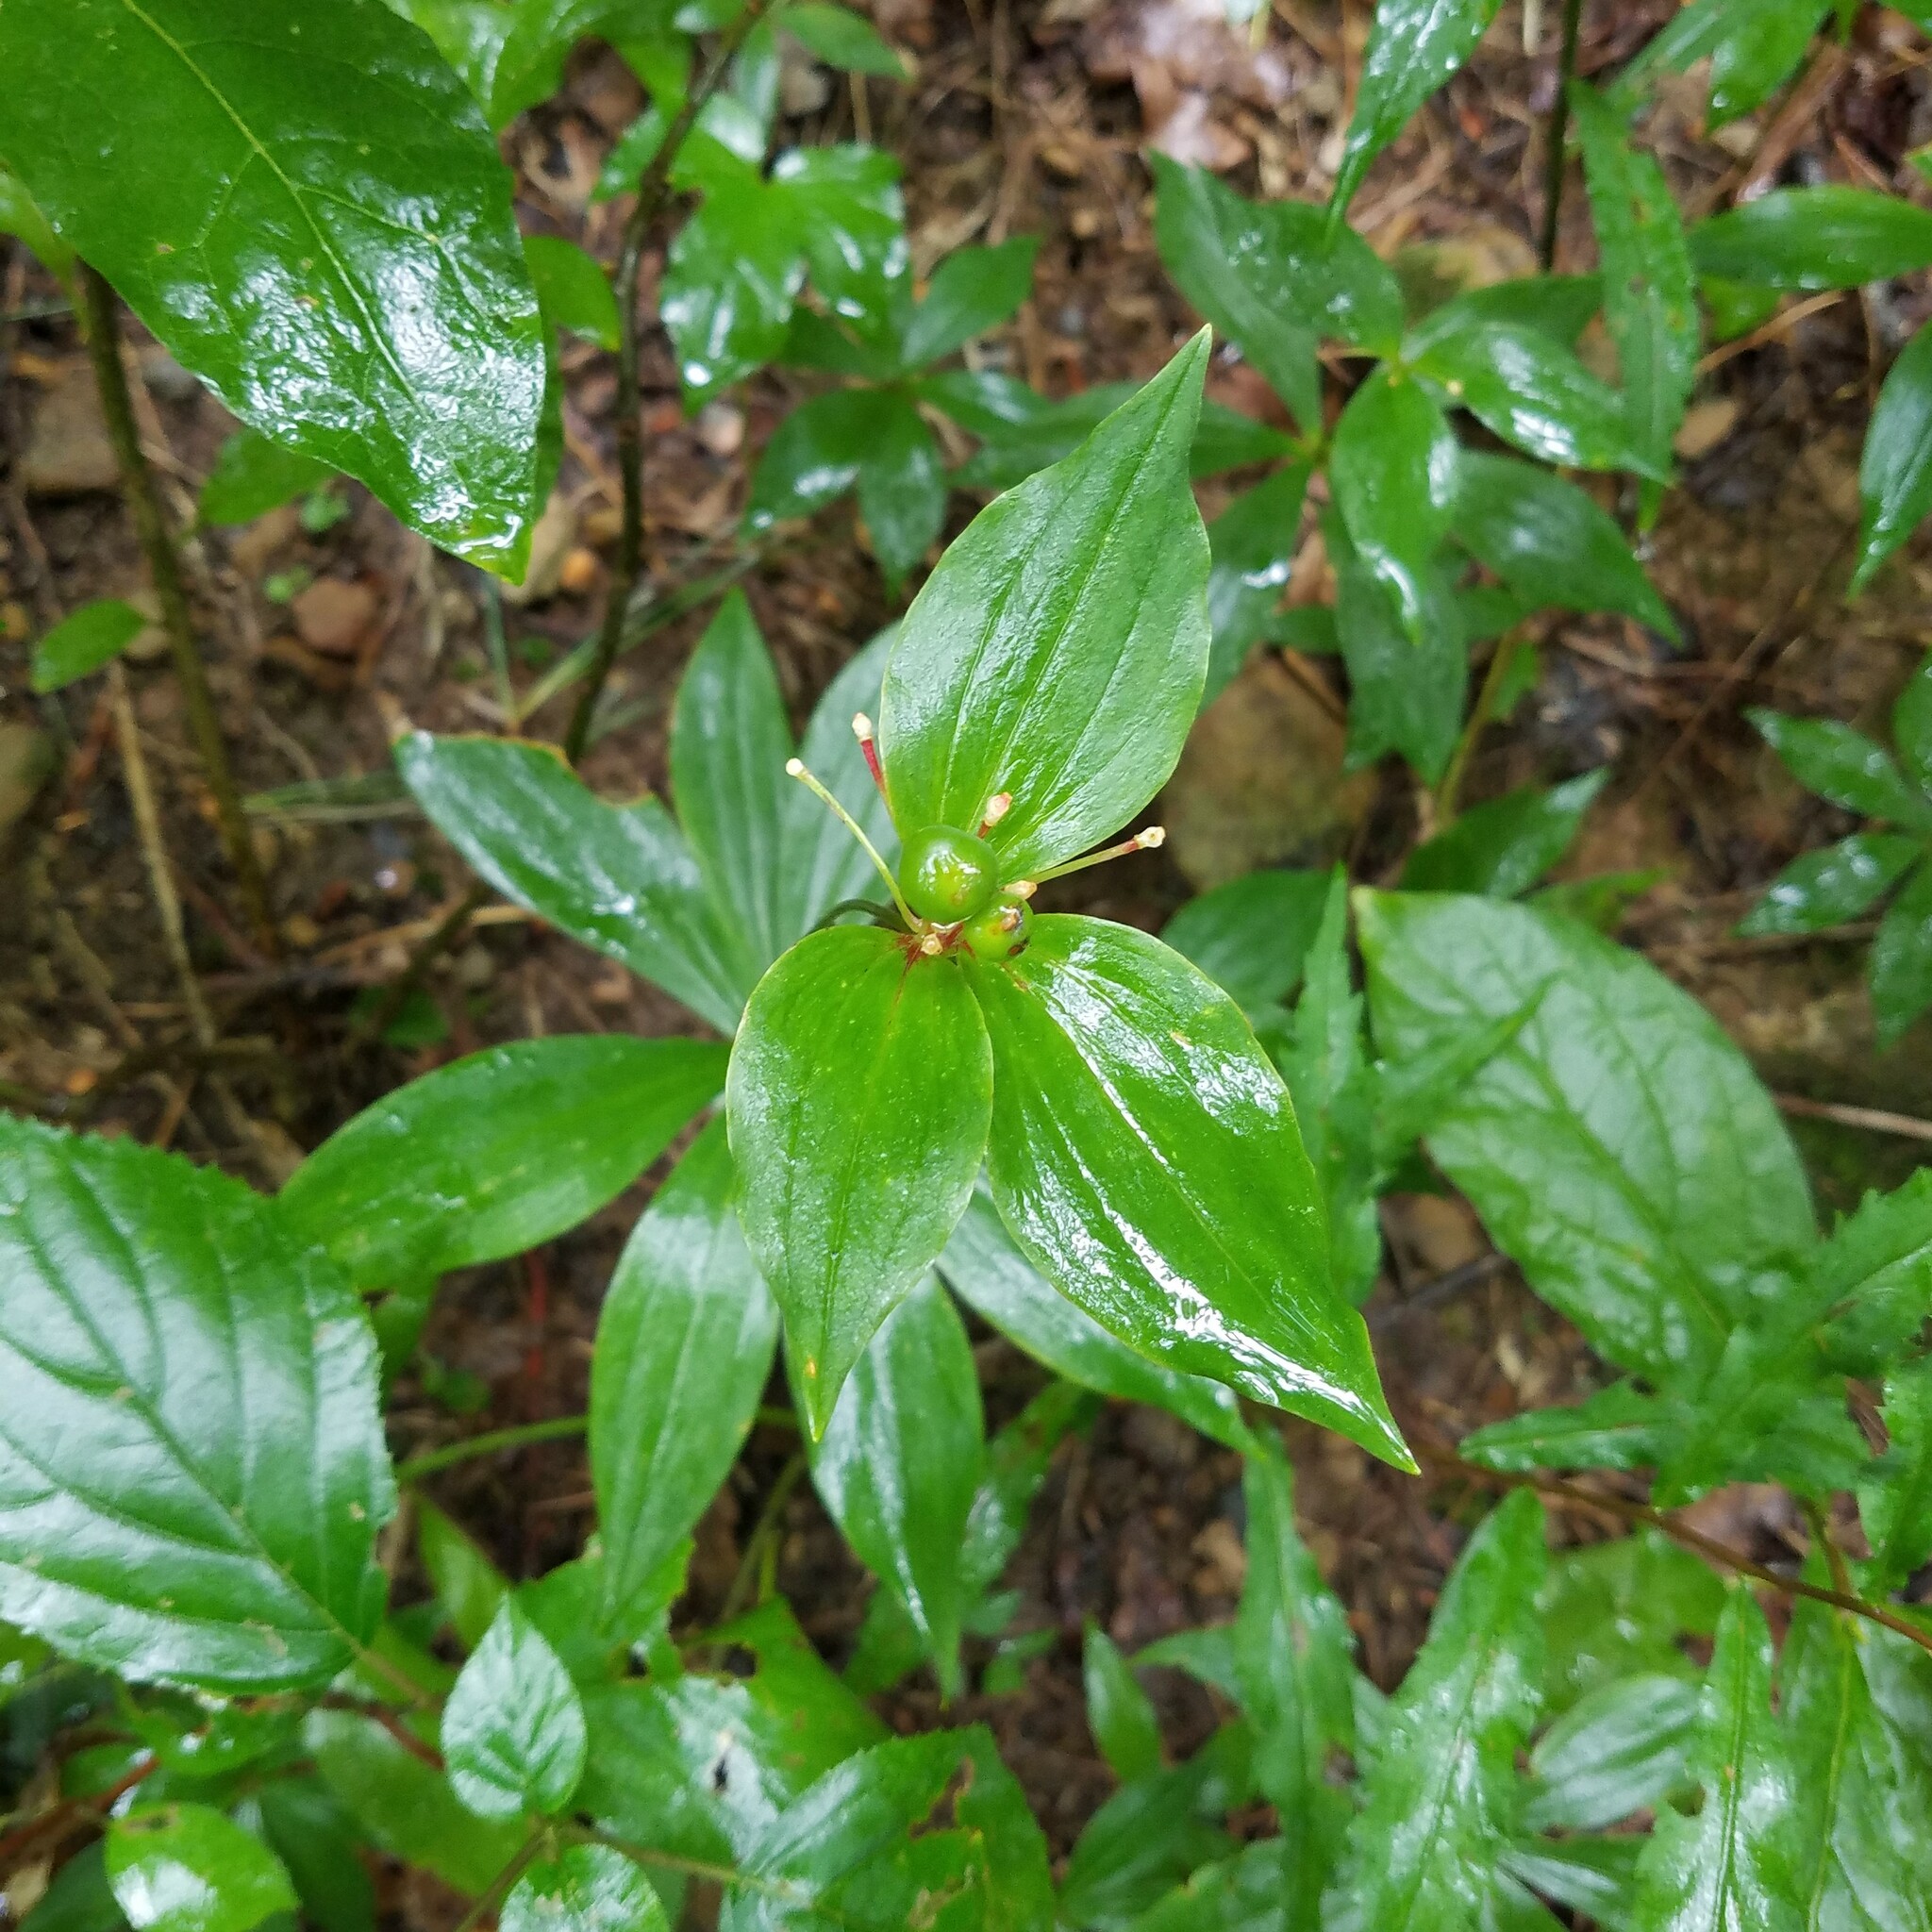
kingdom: Plantae
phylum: Tracheophyta
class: Liliopsida
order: Liliales
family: Liliaceae
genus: Medeola
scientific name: Medeola virginiana
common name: Indian cucumber-root
